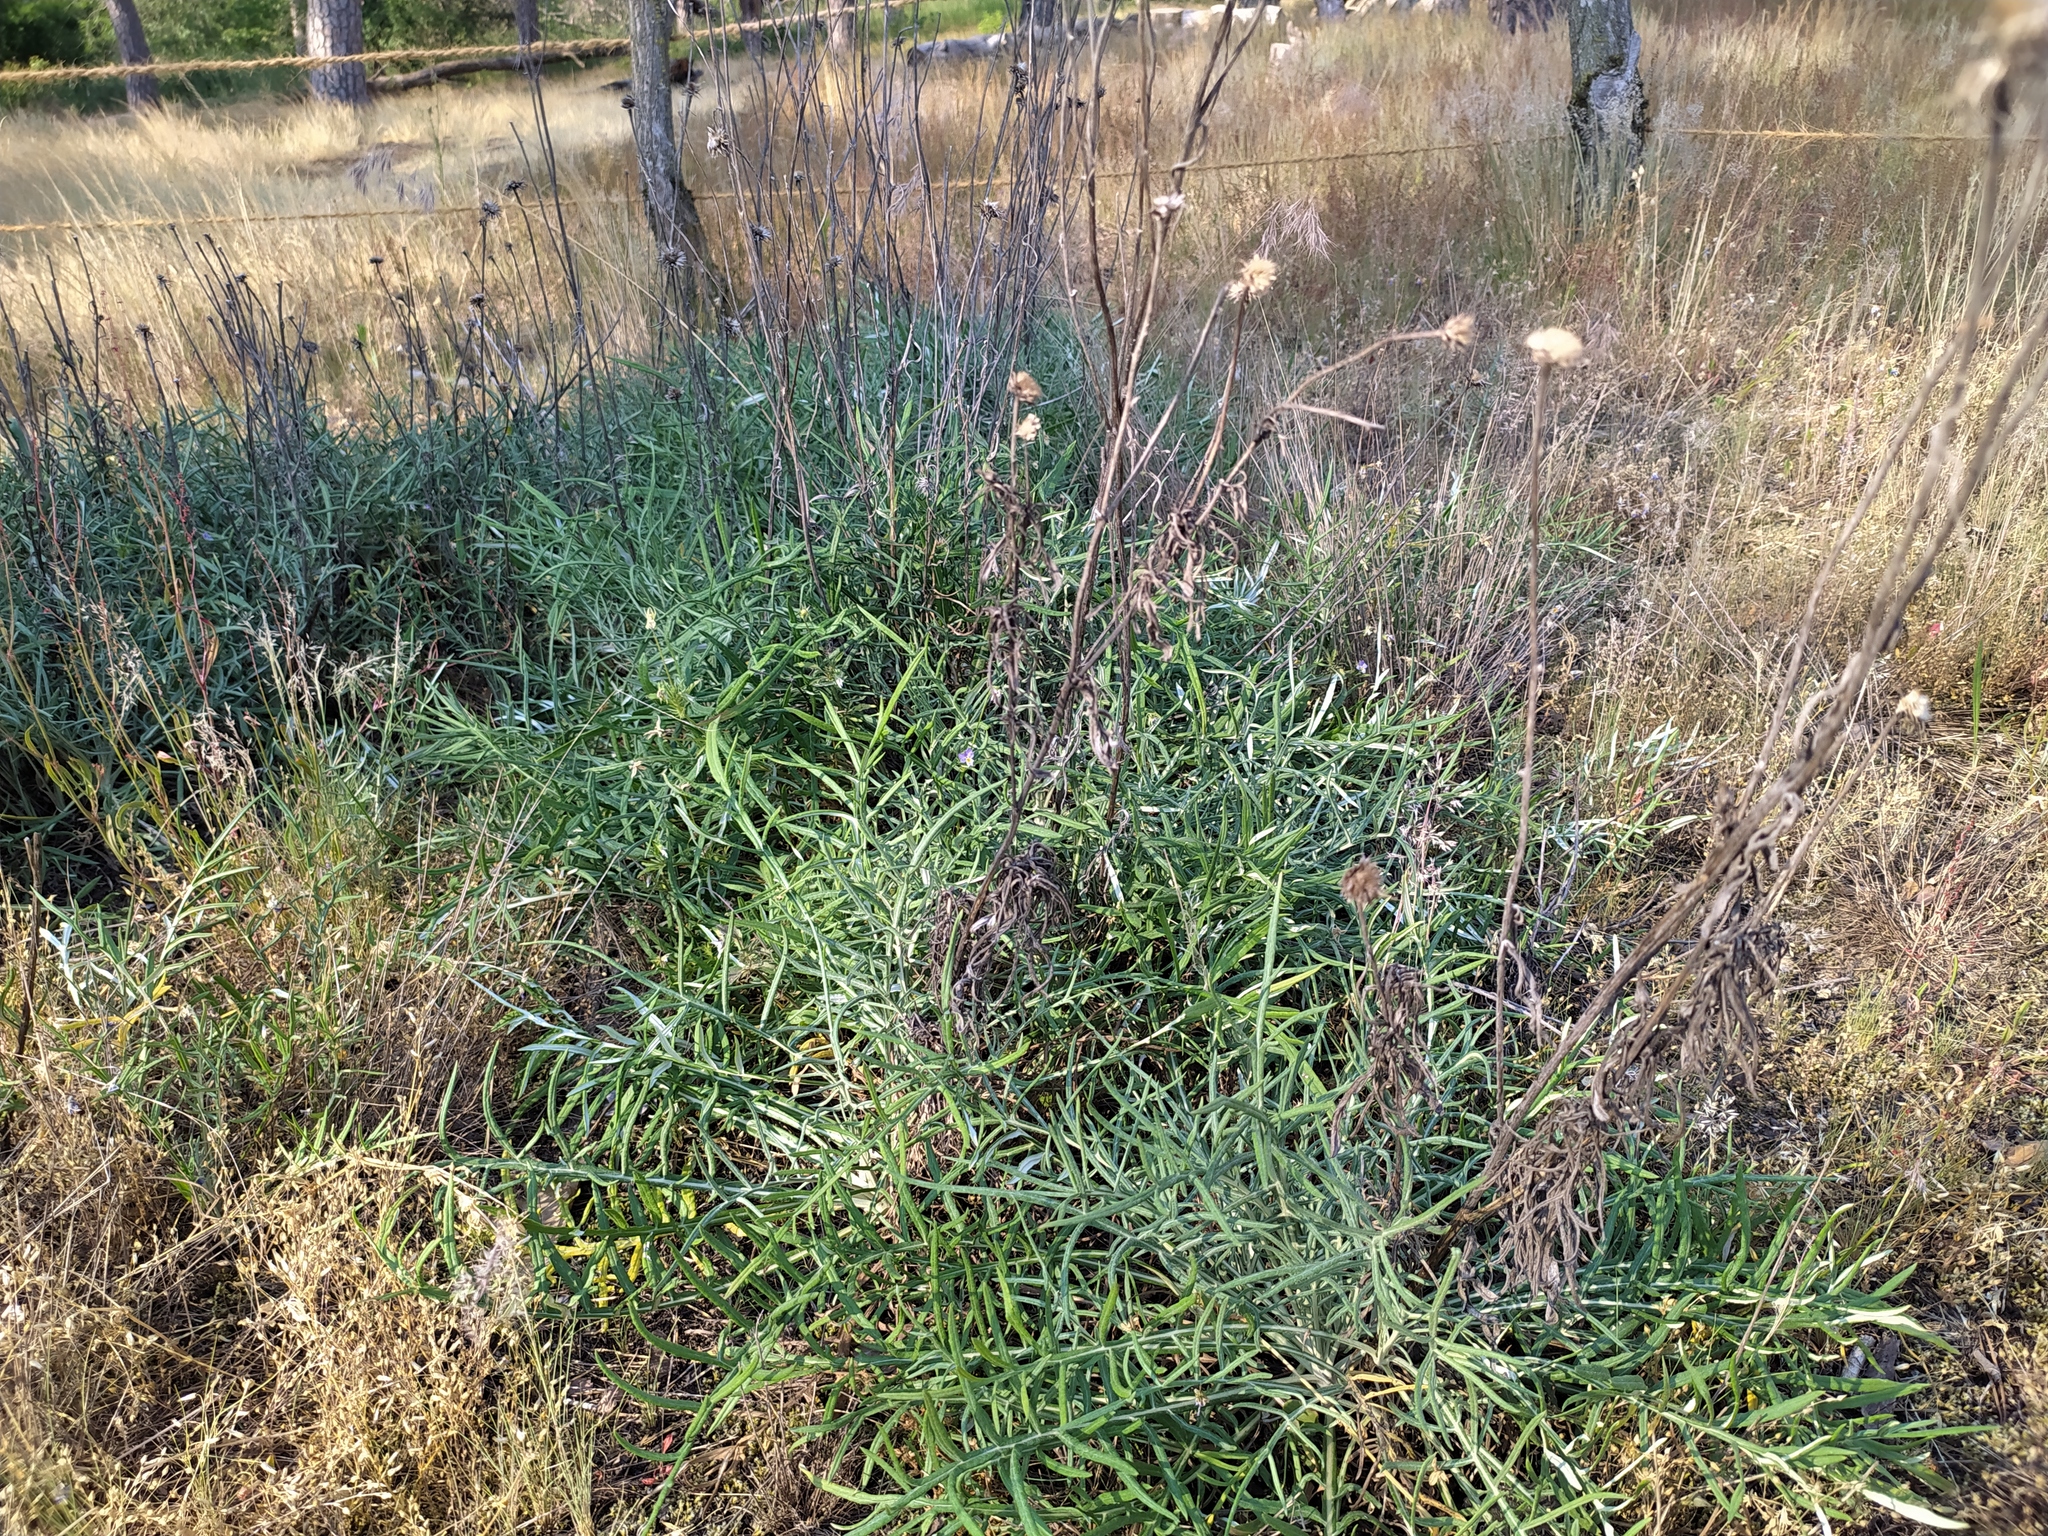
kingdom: Plantae
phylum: Tracheophyta
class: Magnoliopsida
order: Asterales
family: Asteraceae
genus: Jurinea
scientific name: Jurinea cyanoides
